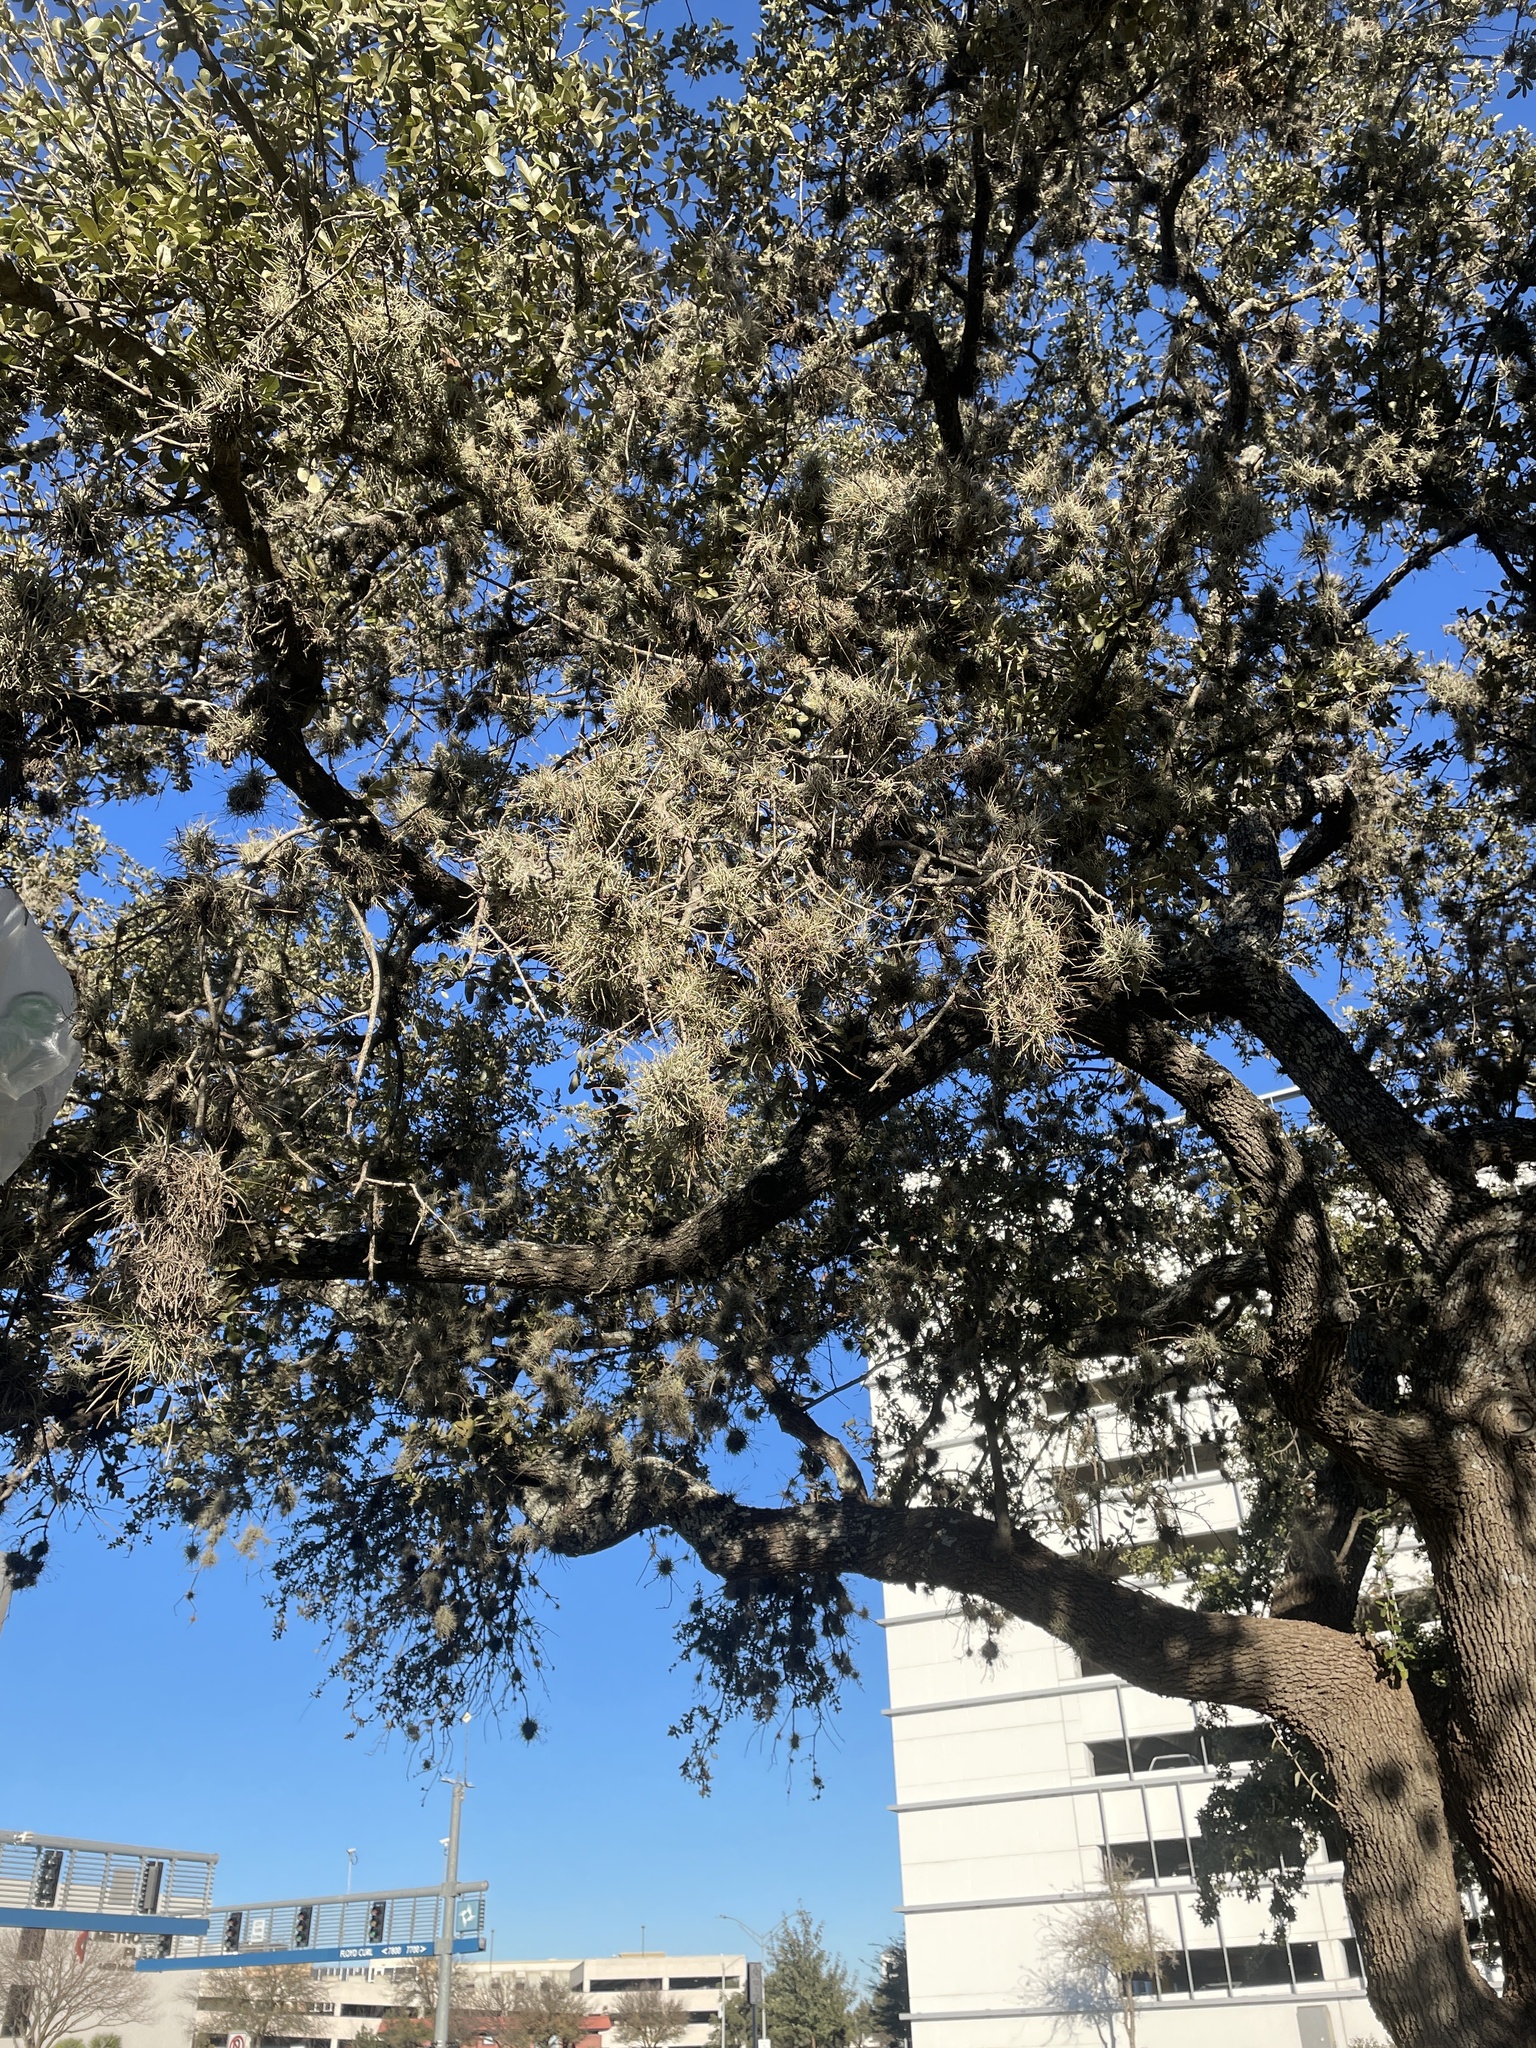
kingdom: Plantae
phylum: Tracheophyta
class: Liliopsida
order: Poales
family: Bromeliaceae
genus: Tillandsia
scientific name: Tillandsia recurvata
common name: Small ballmoss
